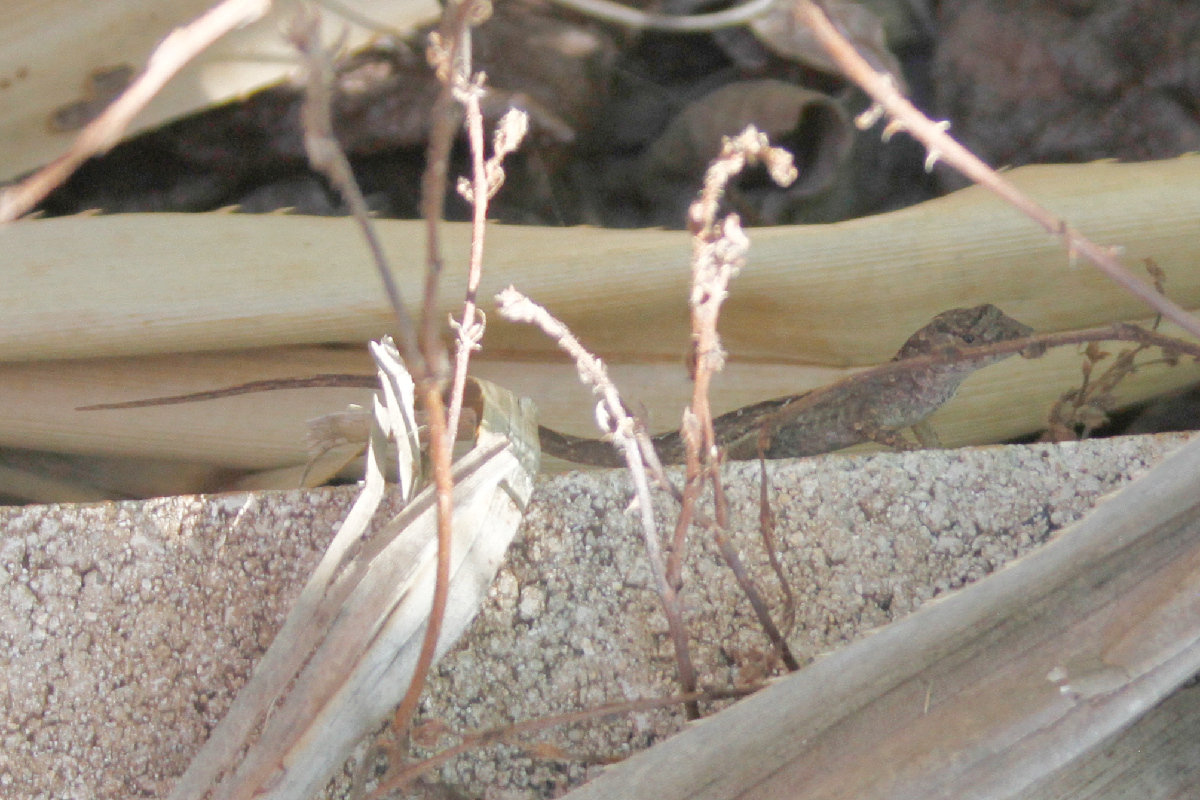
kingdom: Animalia
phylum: Chordata
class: Squamata
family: Dactyloidae
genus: Anolis
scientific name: Anolis sagrei
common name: Brown anole
